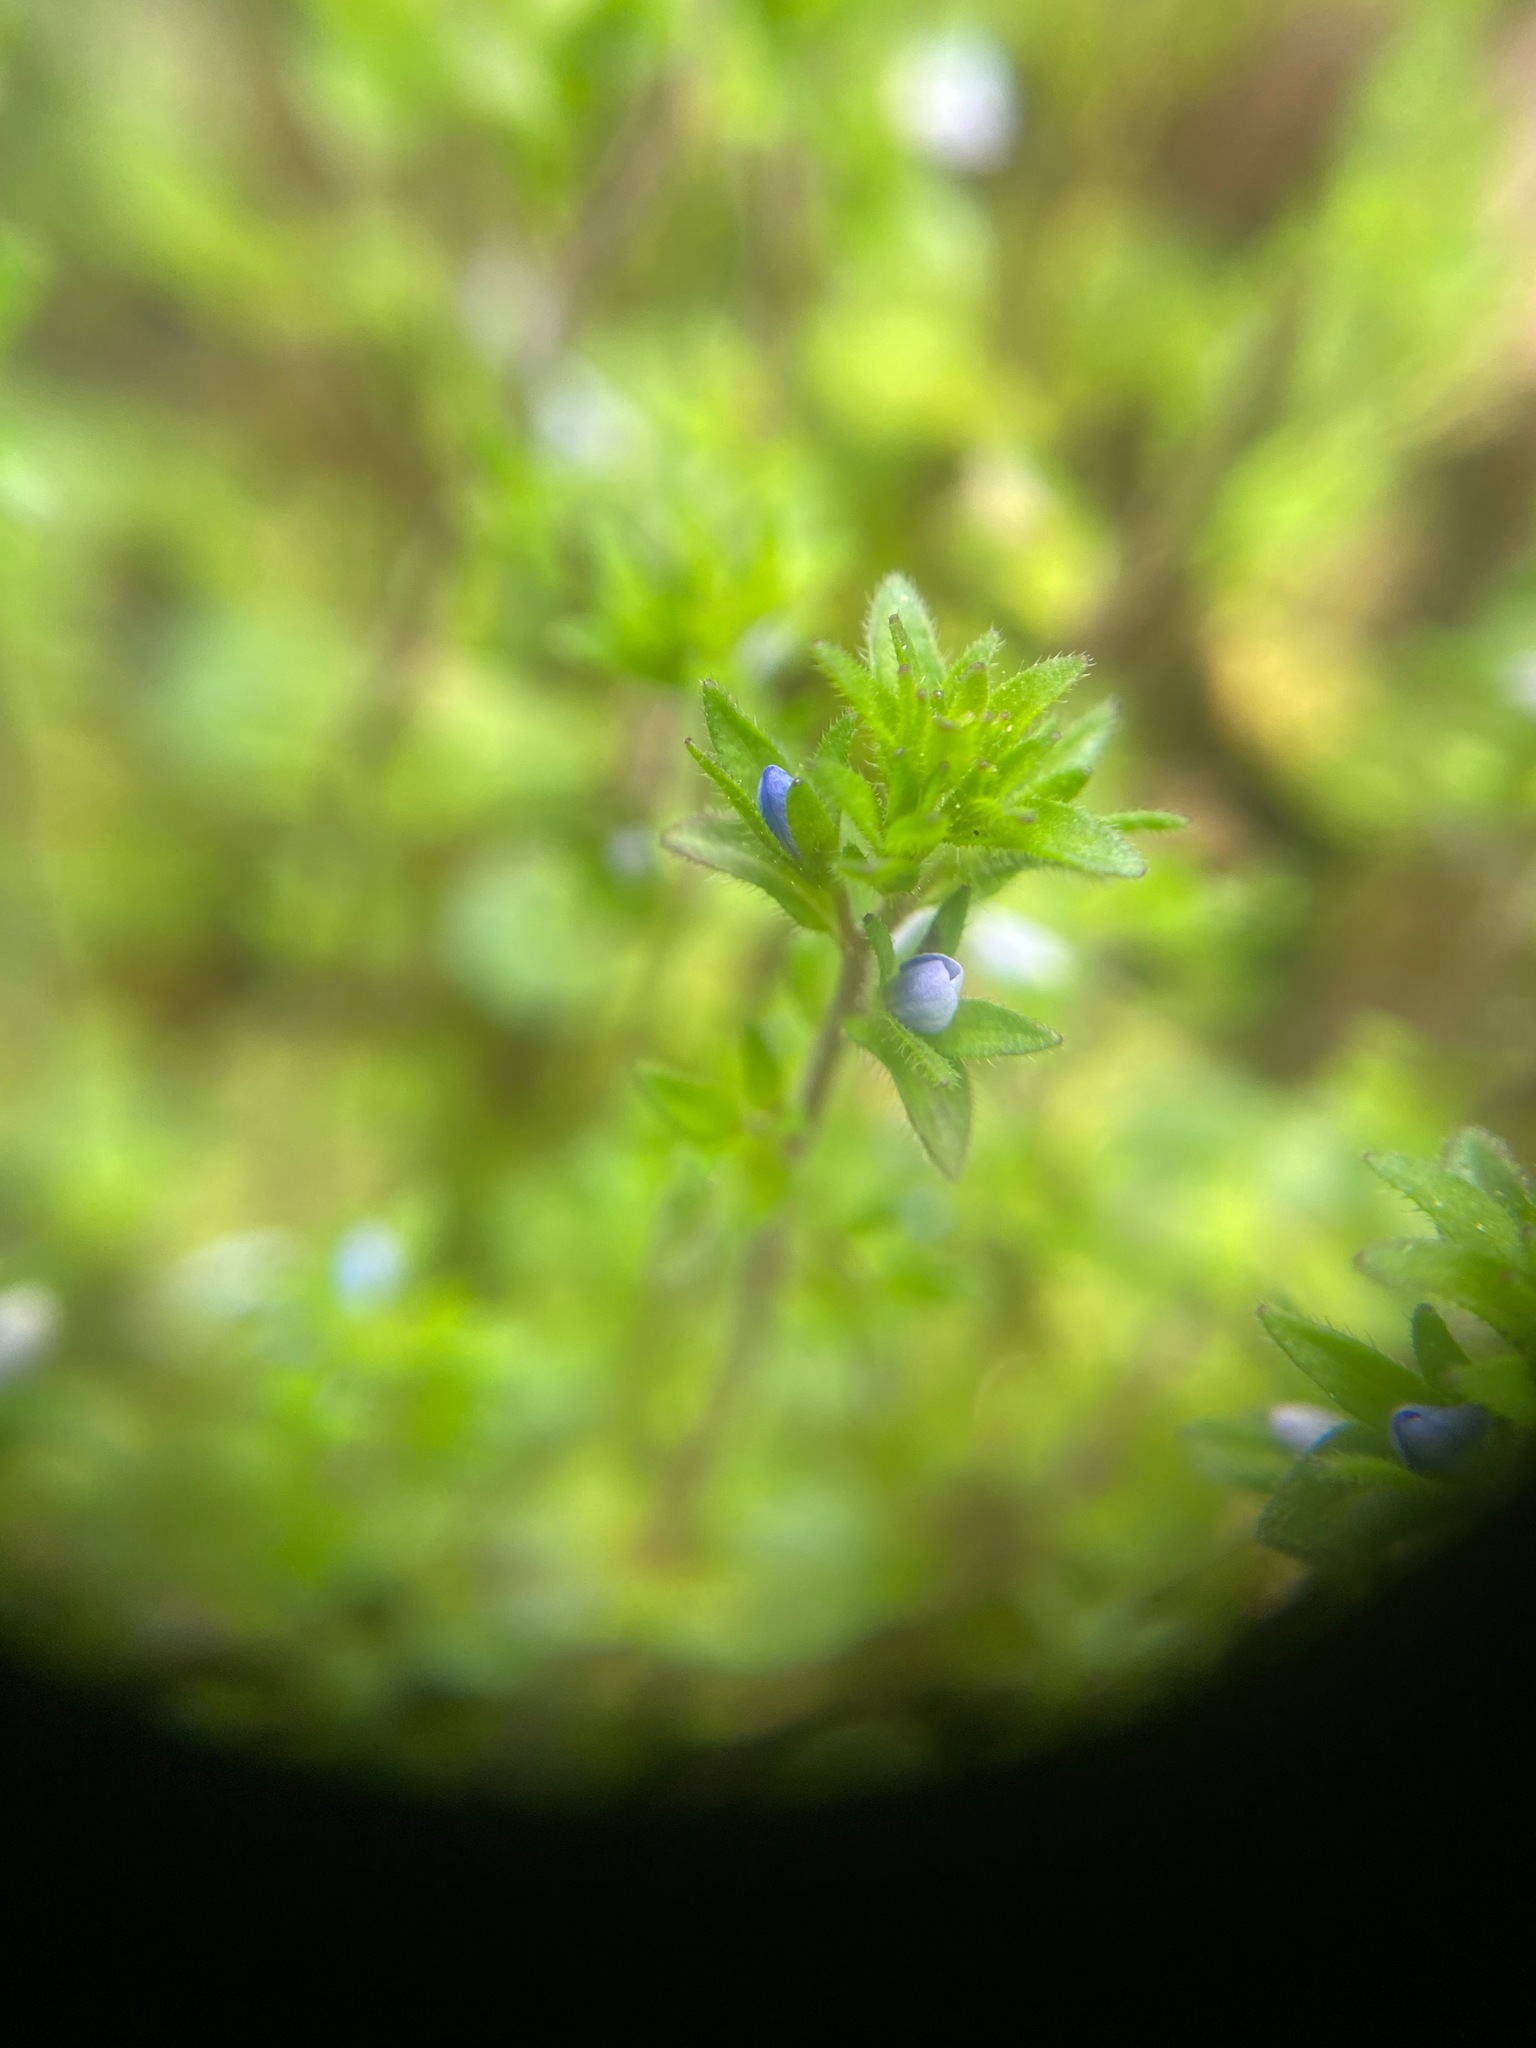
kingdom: Plantae
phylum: Tracheophyta
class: Magnoliopsida
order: Lamiales
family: Plantaginaceae
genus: Veronica
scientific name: Veronica arvensis
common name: Corn speedwell
